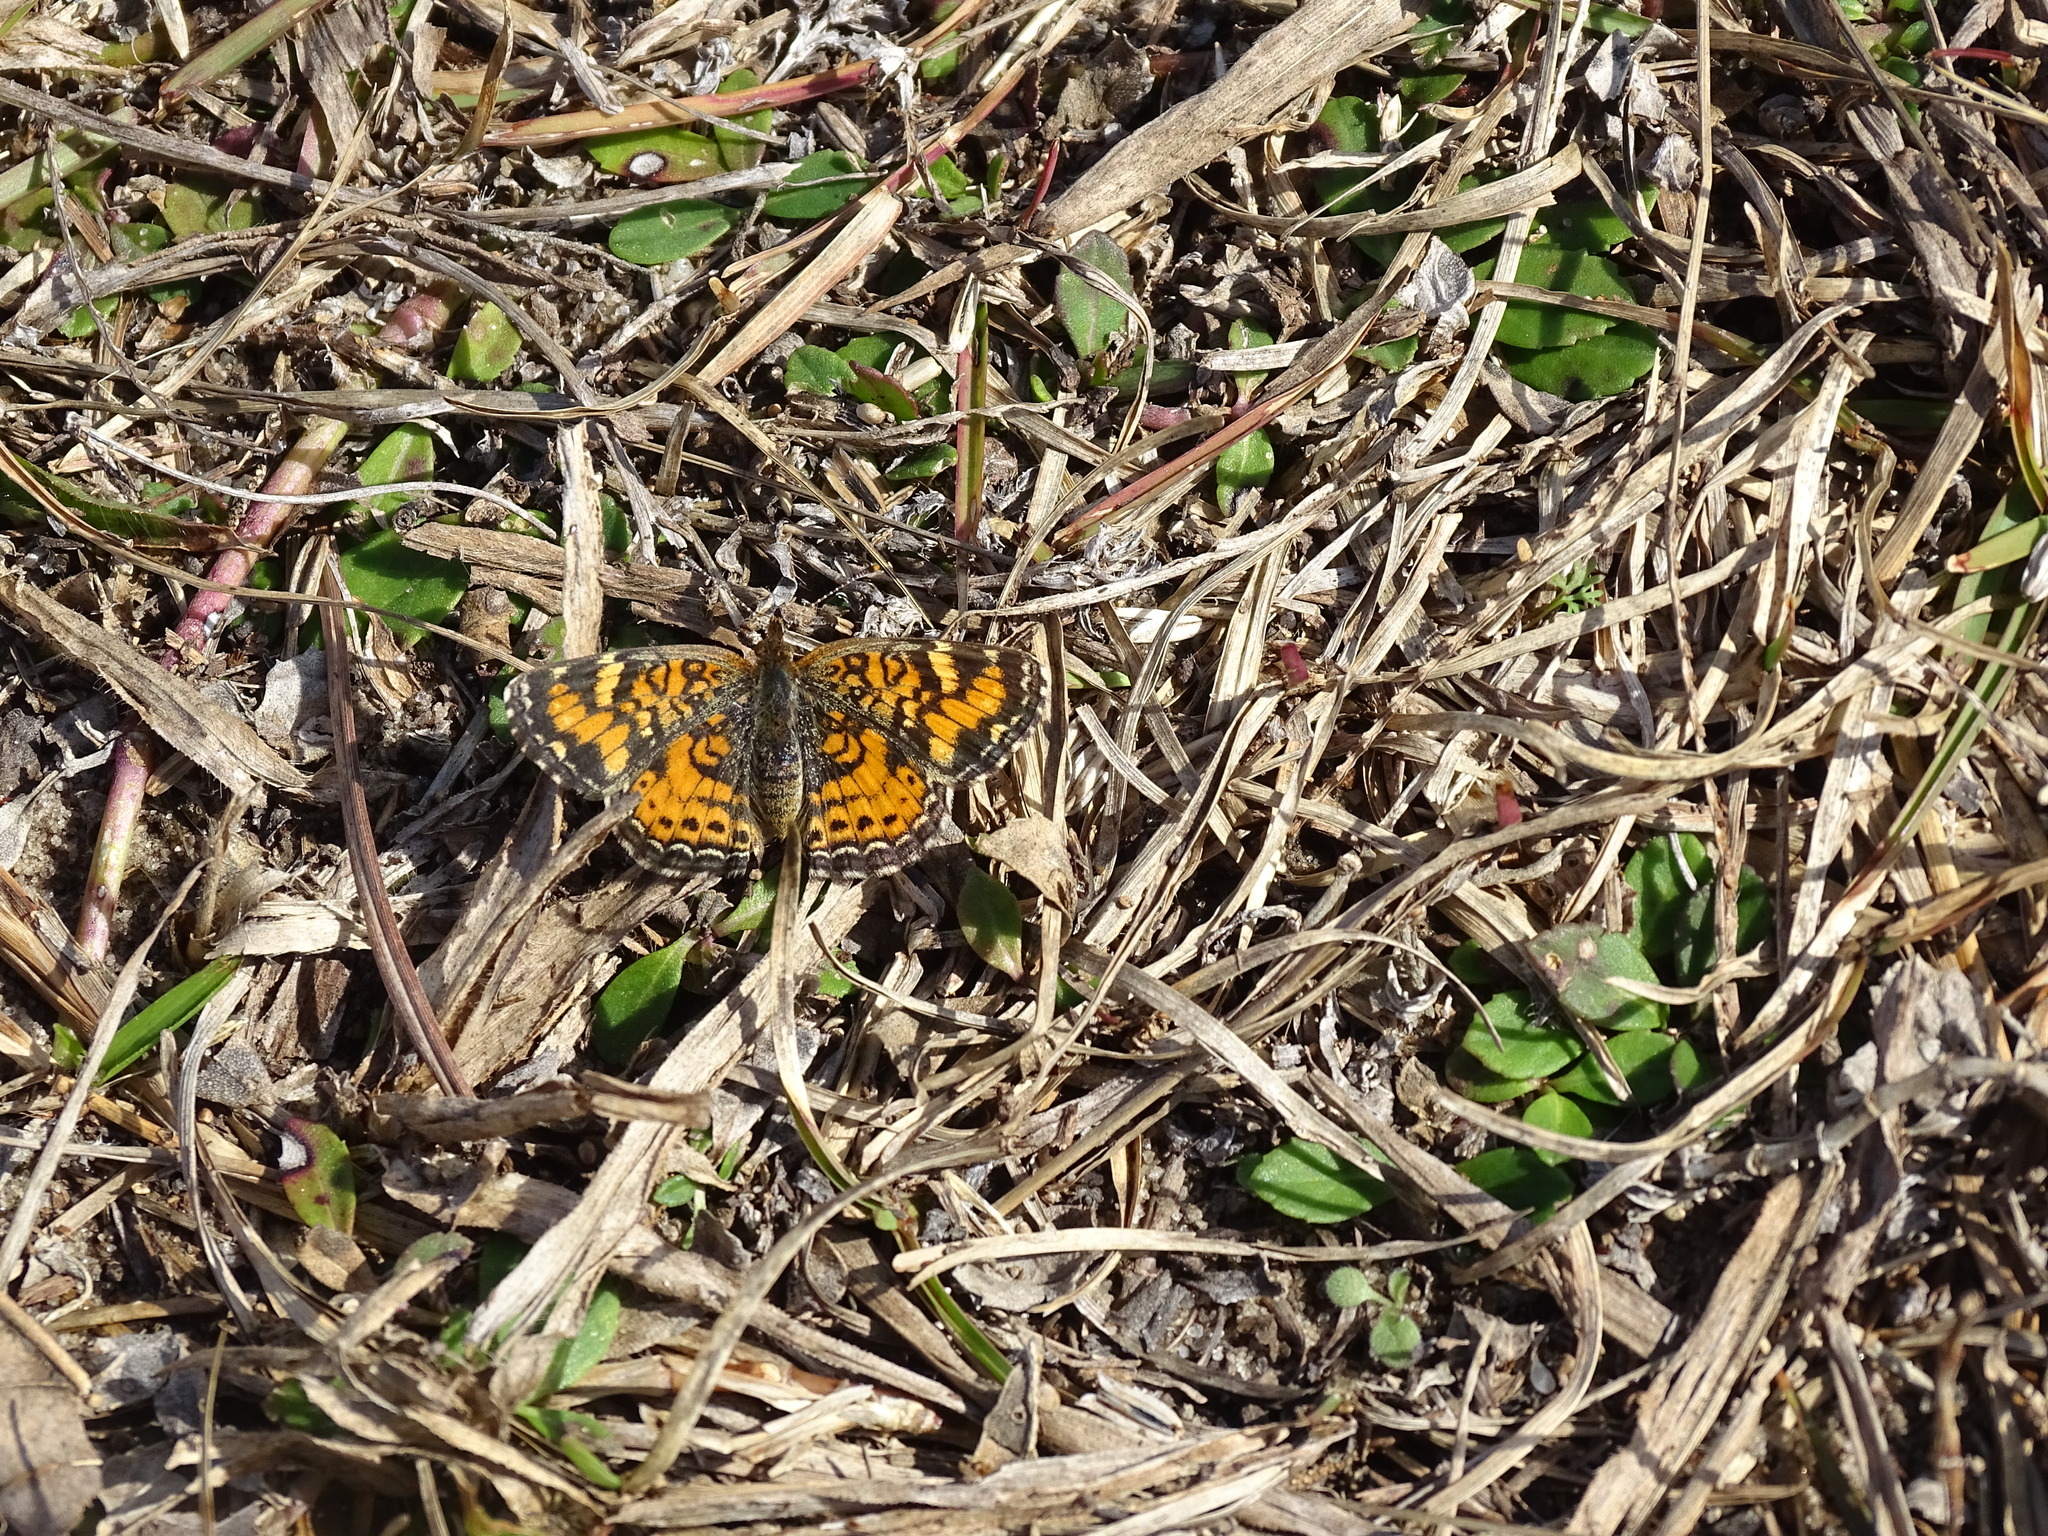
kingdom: Animalia
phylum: Arthropoda
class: Insecta
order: Lepidoptera
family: Nymphalidae
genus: Phyciodes
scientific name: Phyciodes tharos
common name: Pearl crescent
